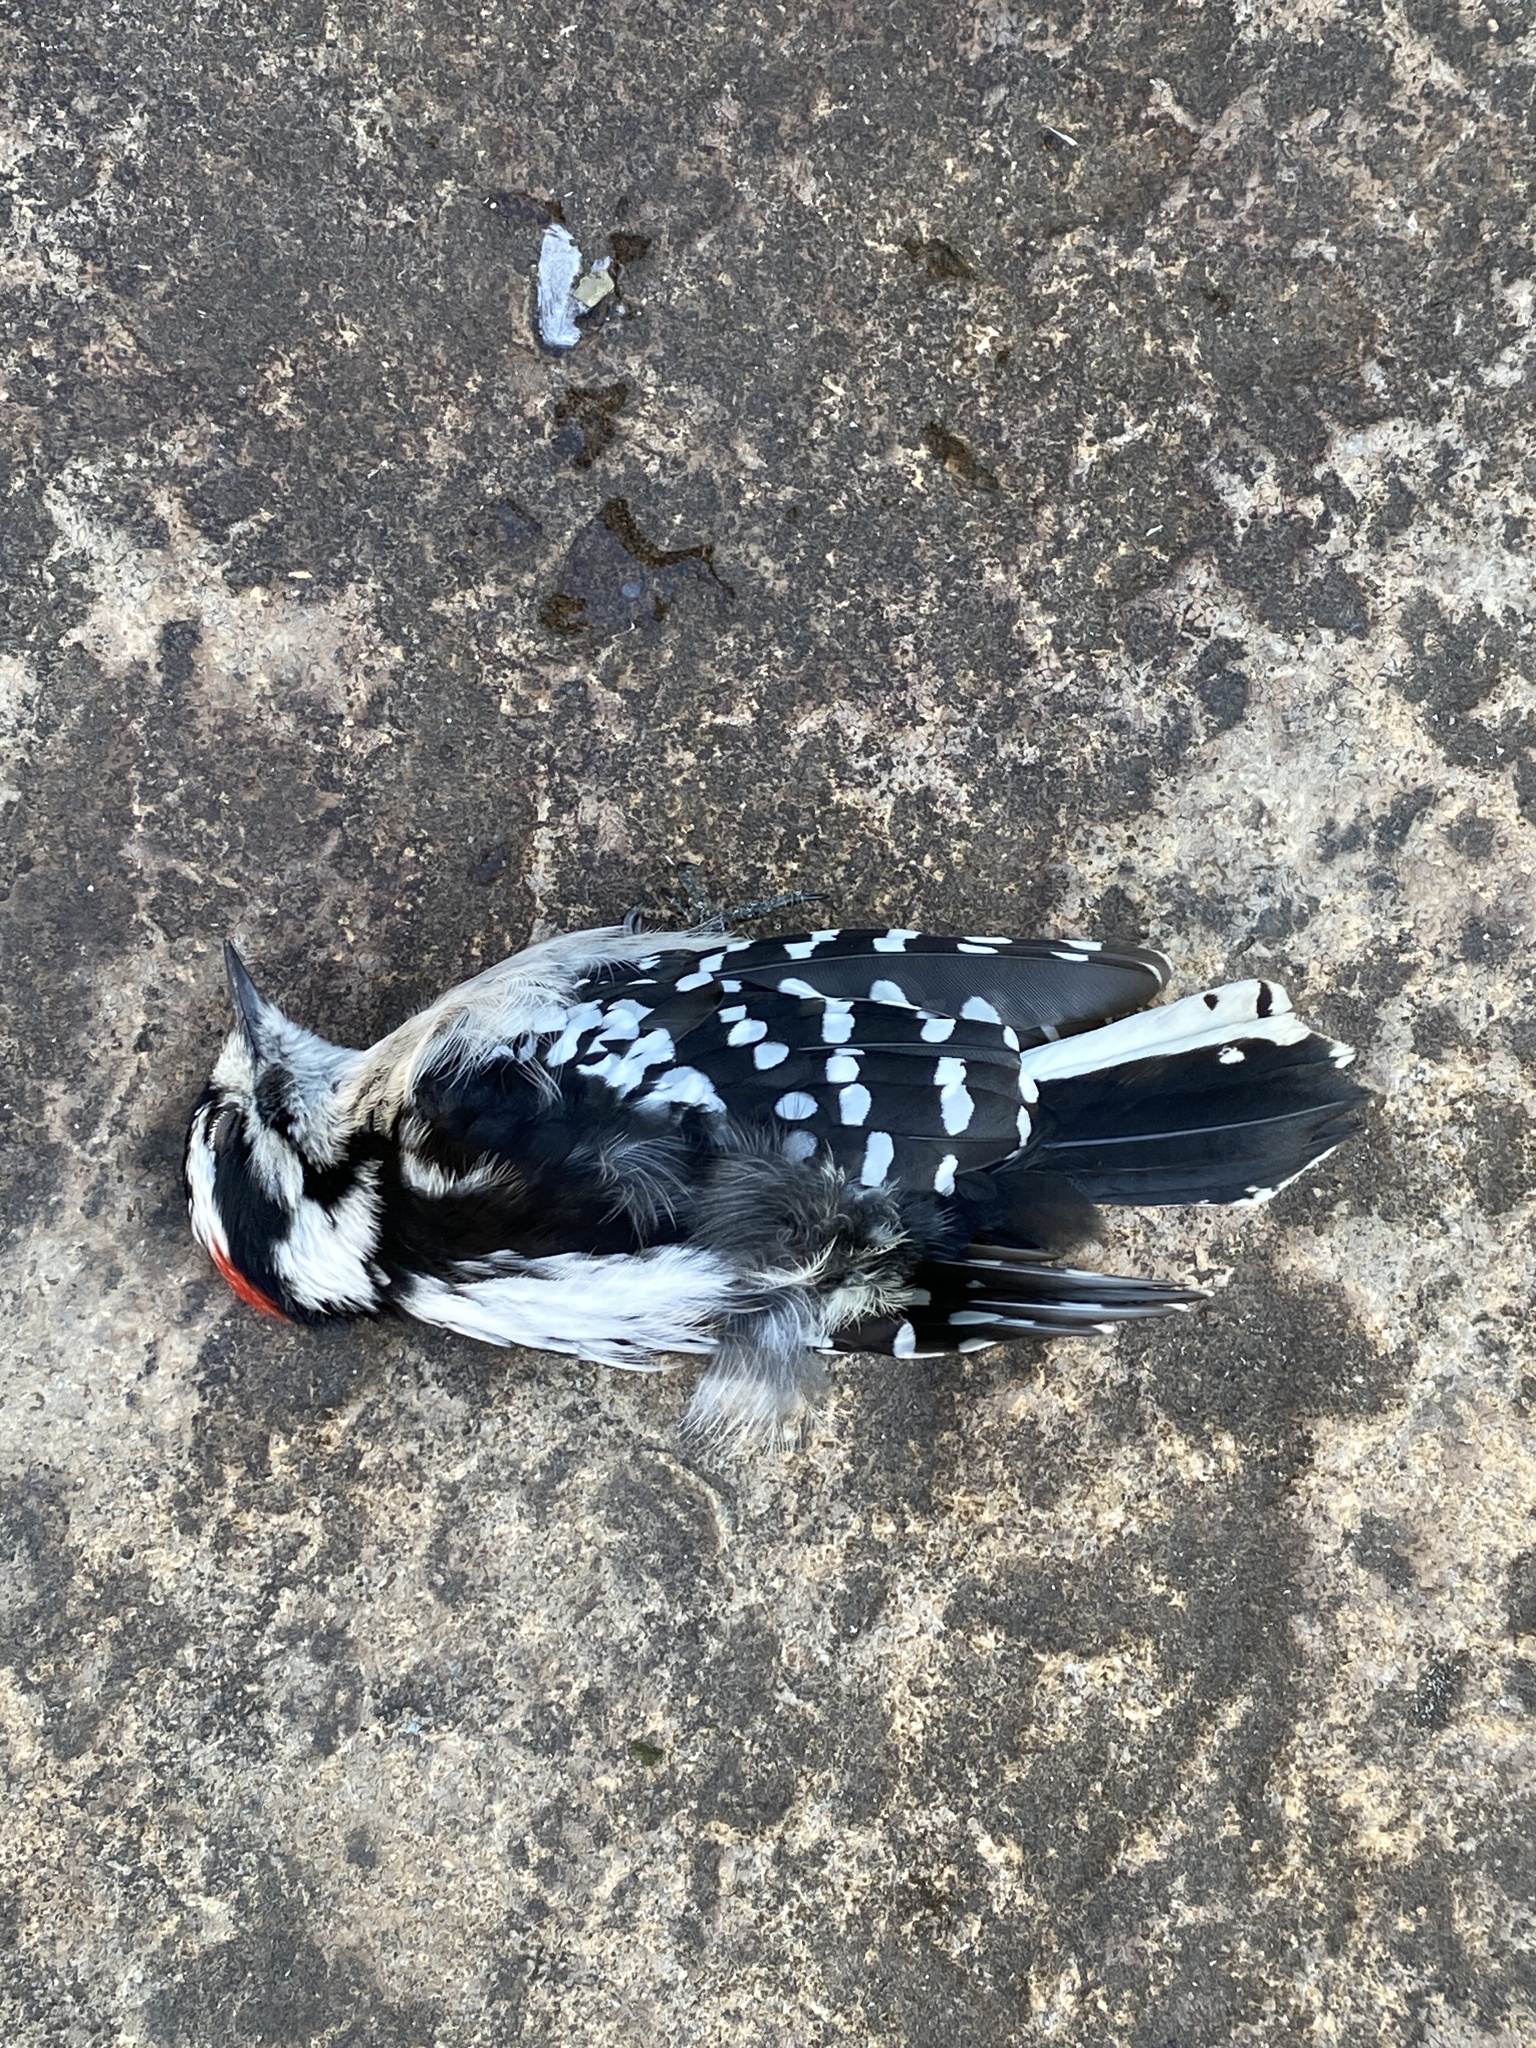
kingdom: Animalia
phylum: Chordata
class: Aves
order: Piciformes
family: Picidae
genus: Dryobates
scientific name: Dryobates pubescens
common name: Downy woodpecker
